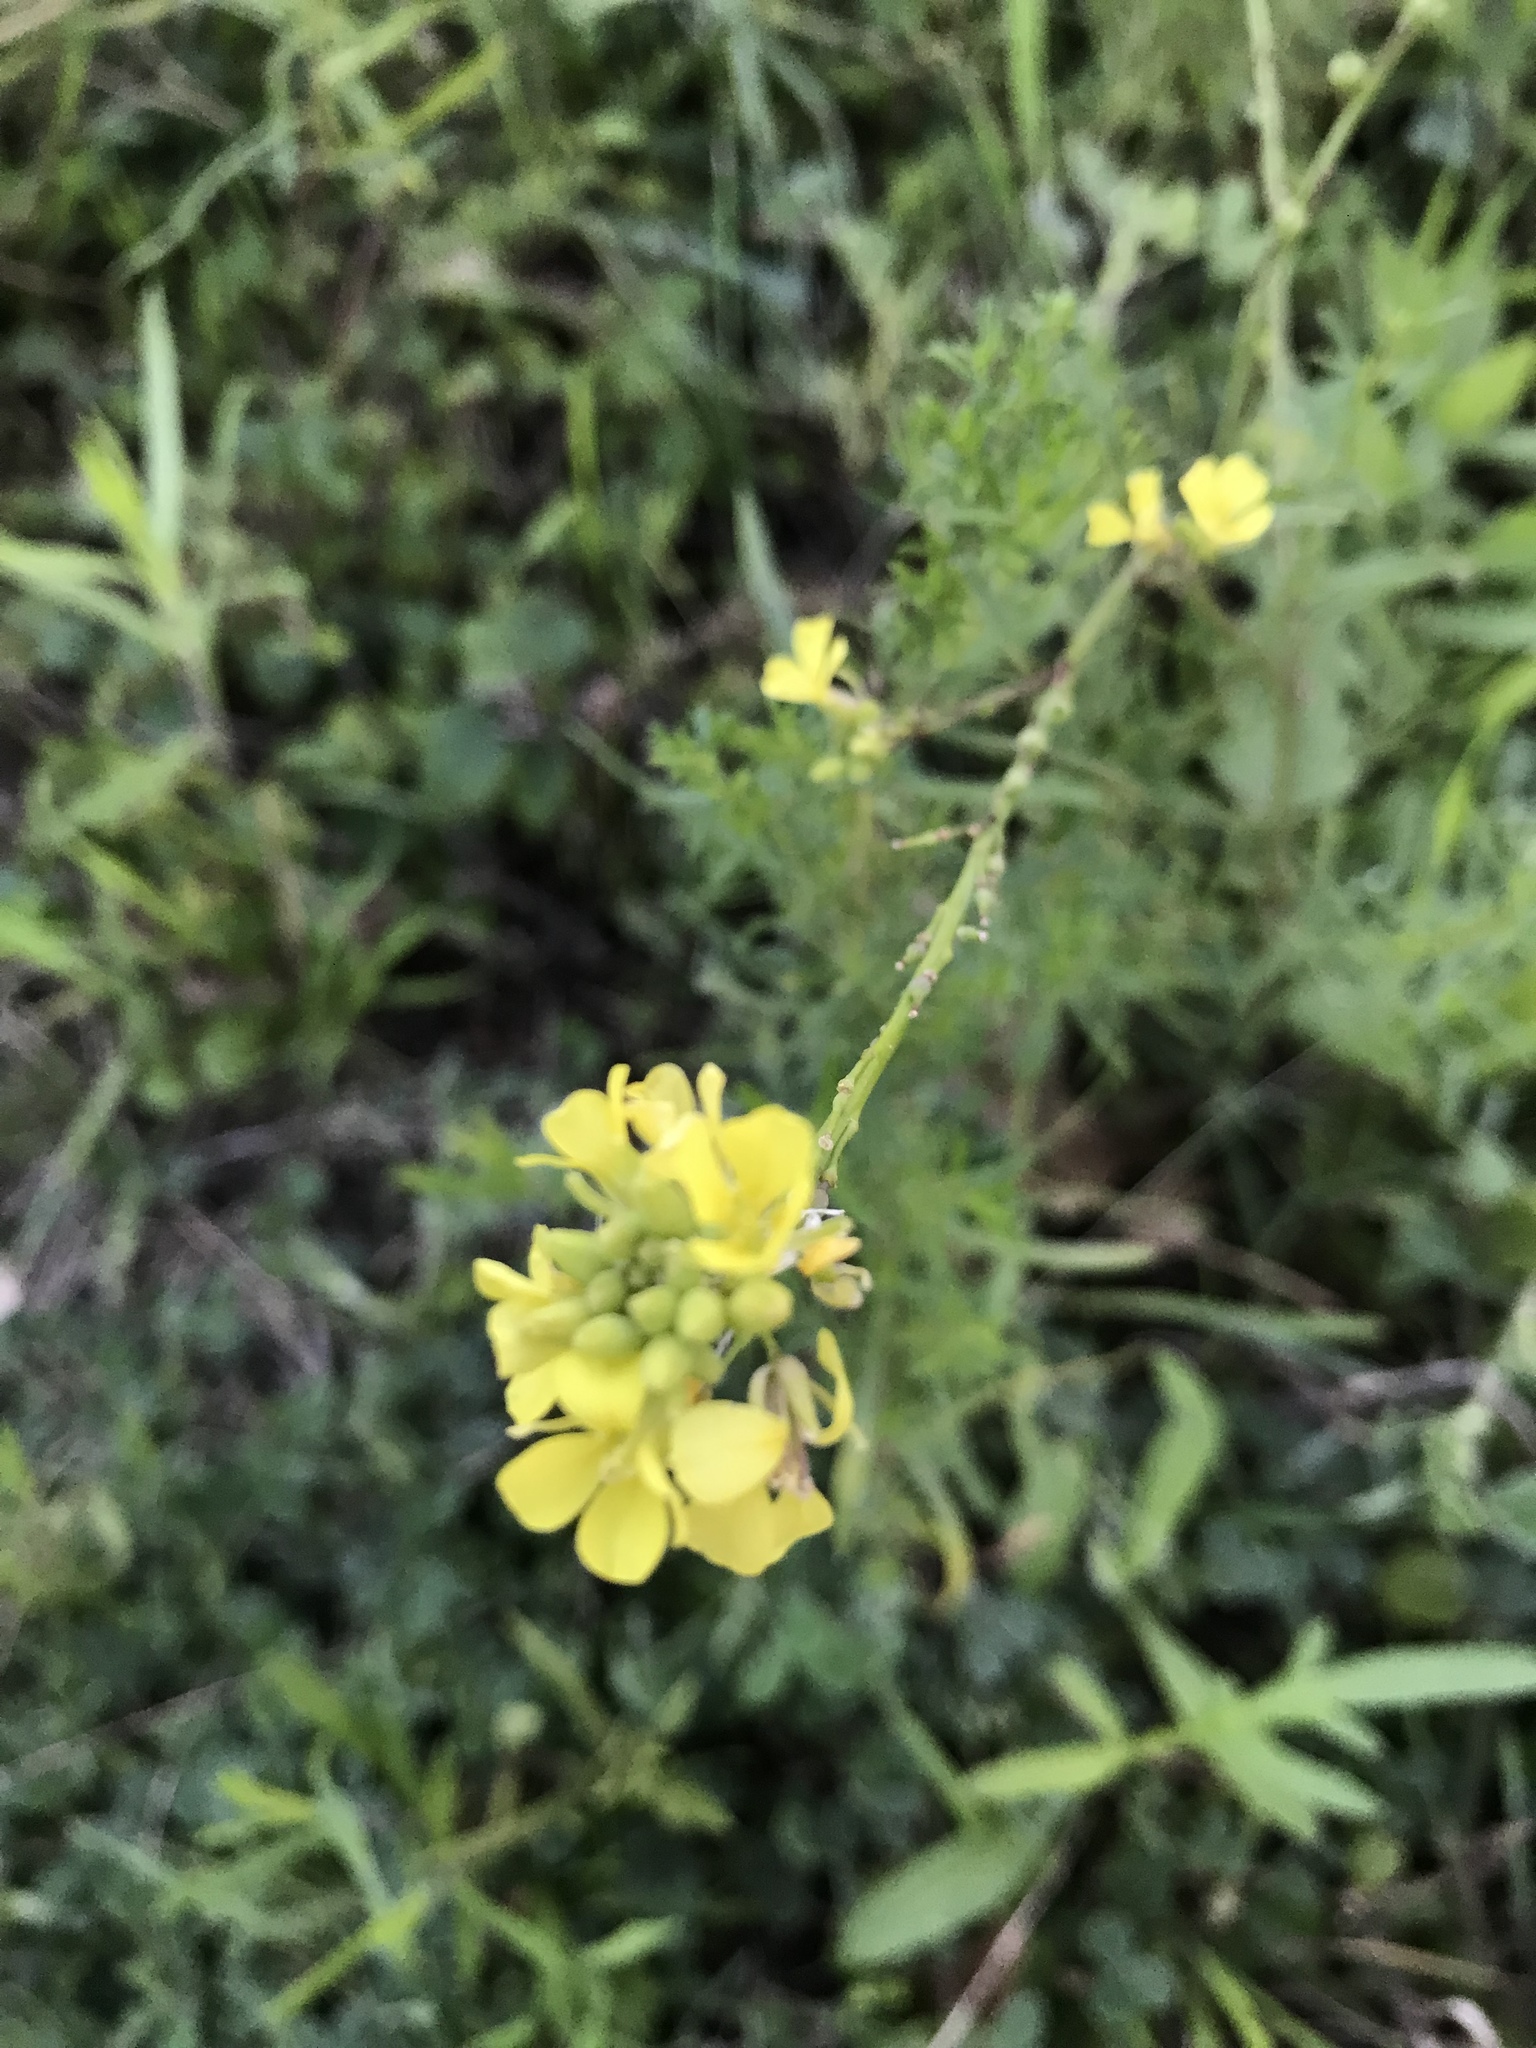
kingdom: Plantae
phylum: Tracheophyta
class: Magnoliopsida
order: Brassicales
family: Brassicaceae
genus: Rapistrum
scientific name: Rapistrum rugosum
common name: Annual bastardcabbage
